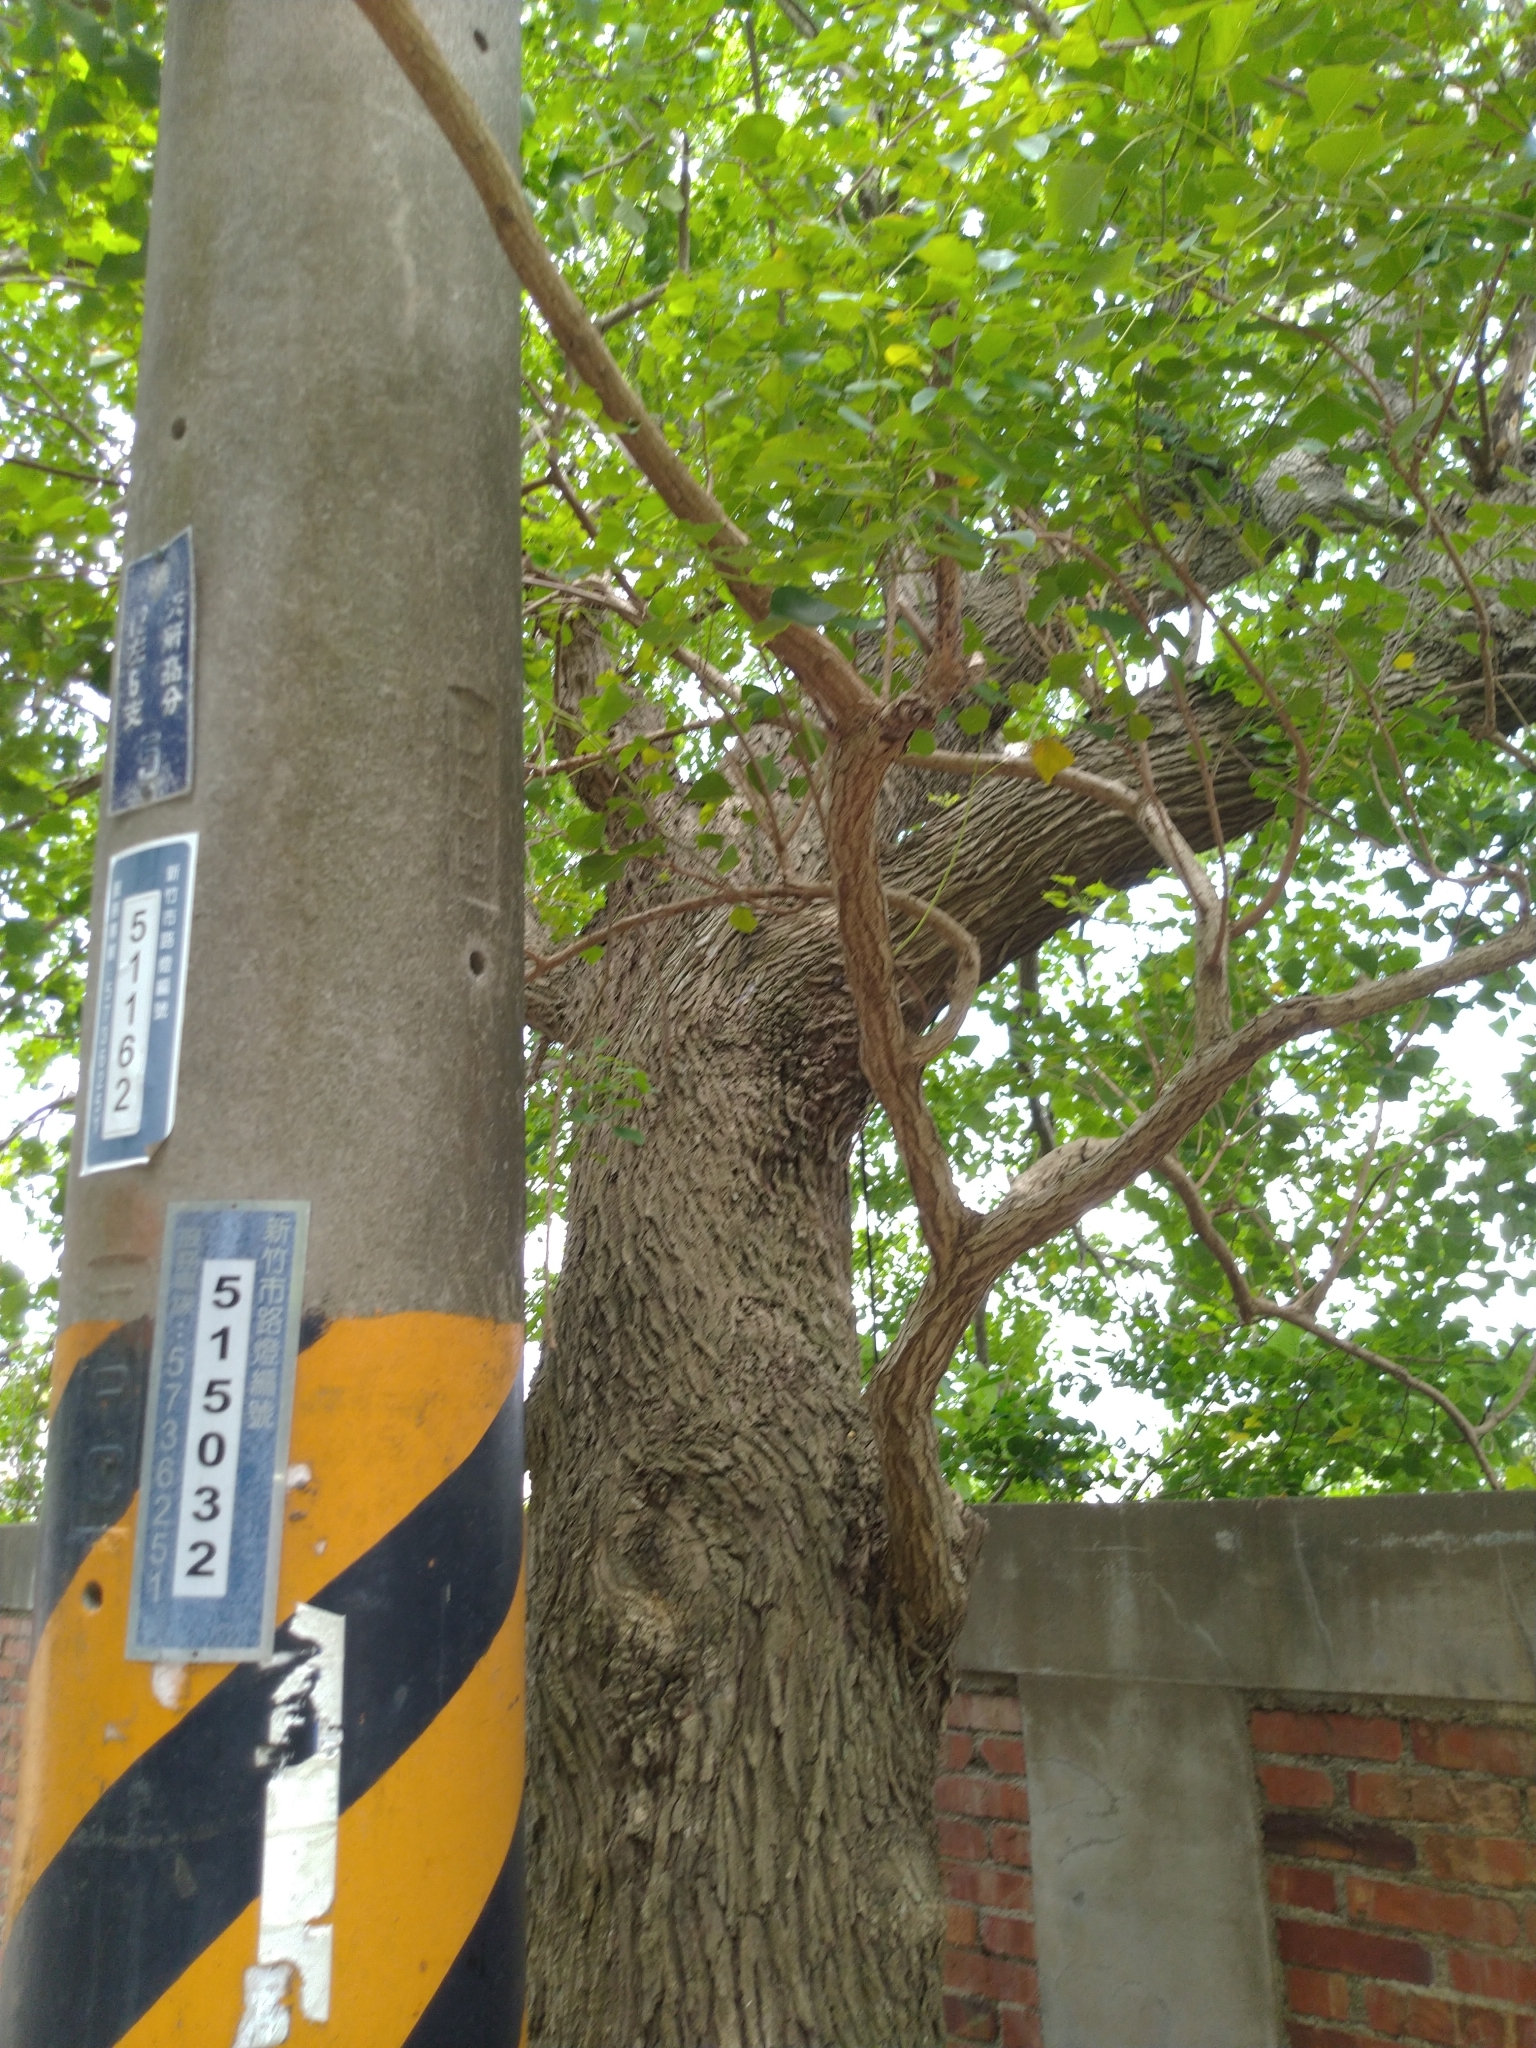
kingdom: Plantae
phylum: Tracheophyta
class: Magnoliopsida
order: Malpighiales
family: Euphorbiaceae
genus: Triadica
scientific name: Triadica sebifera
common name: Chinese tallow
